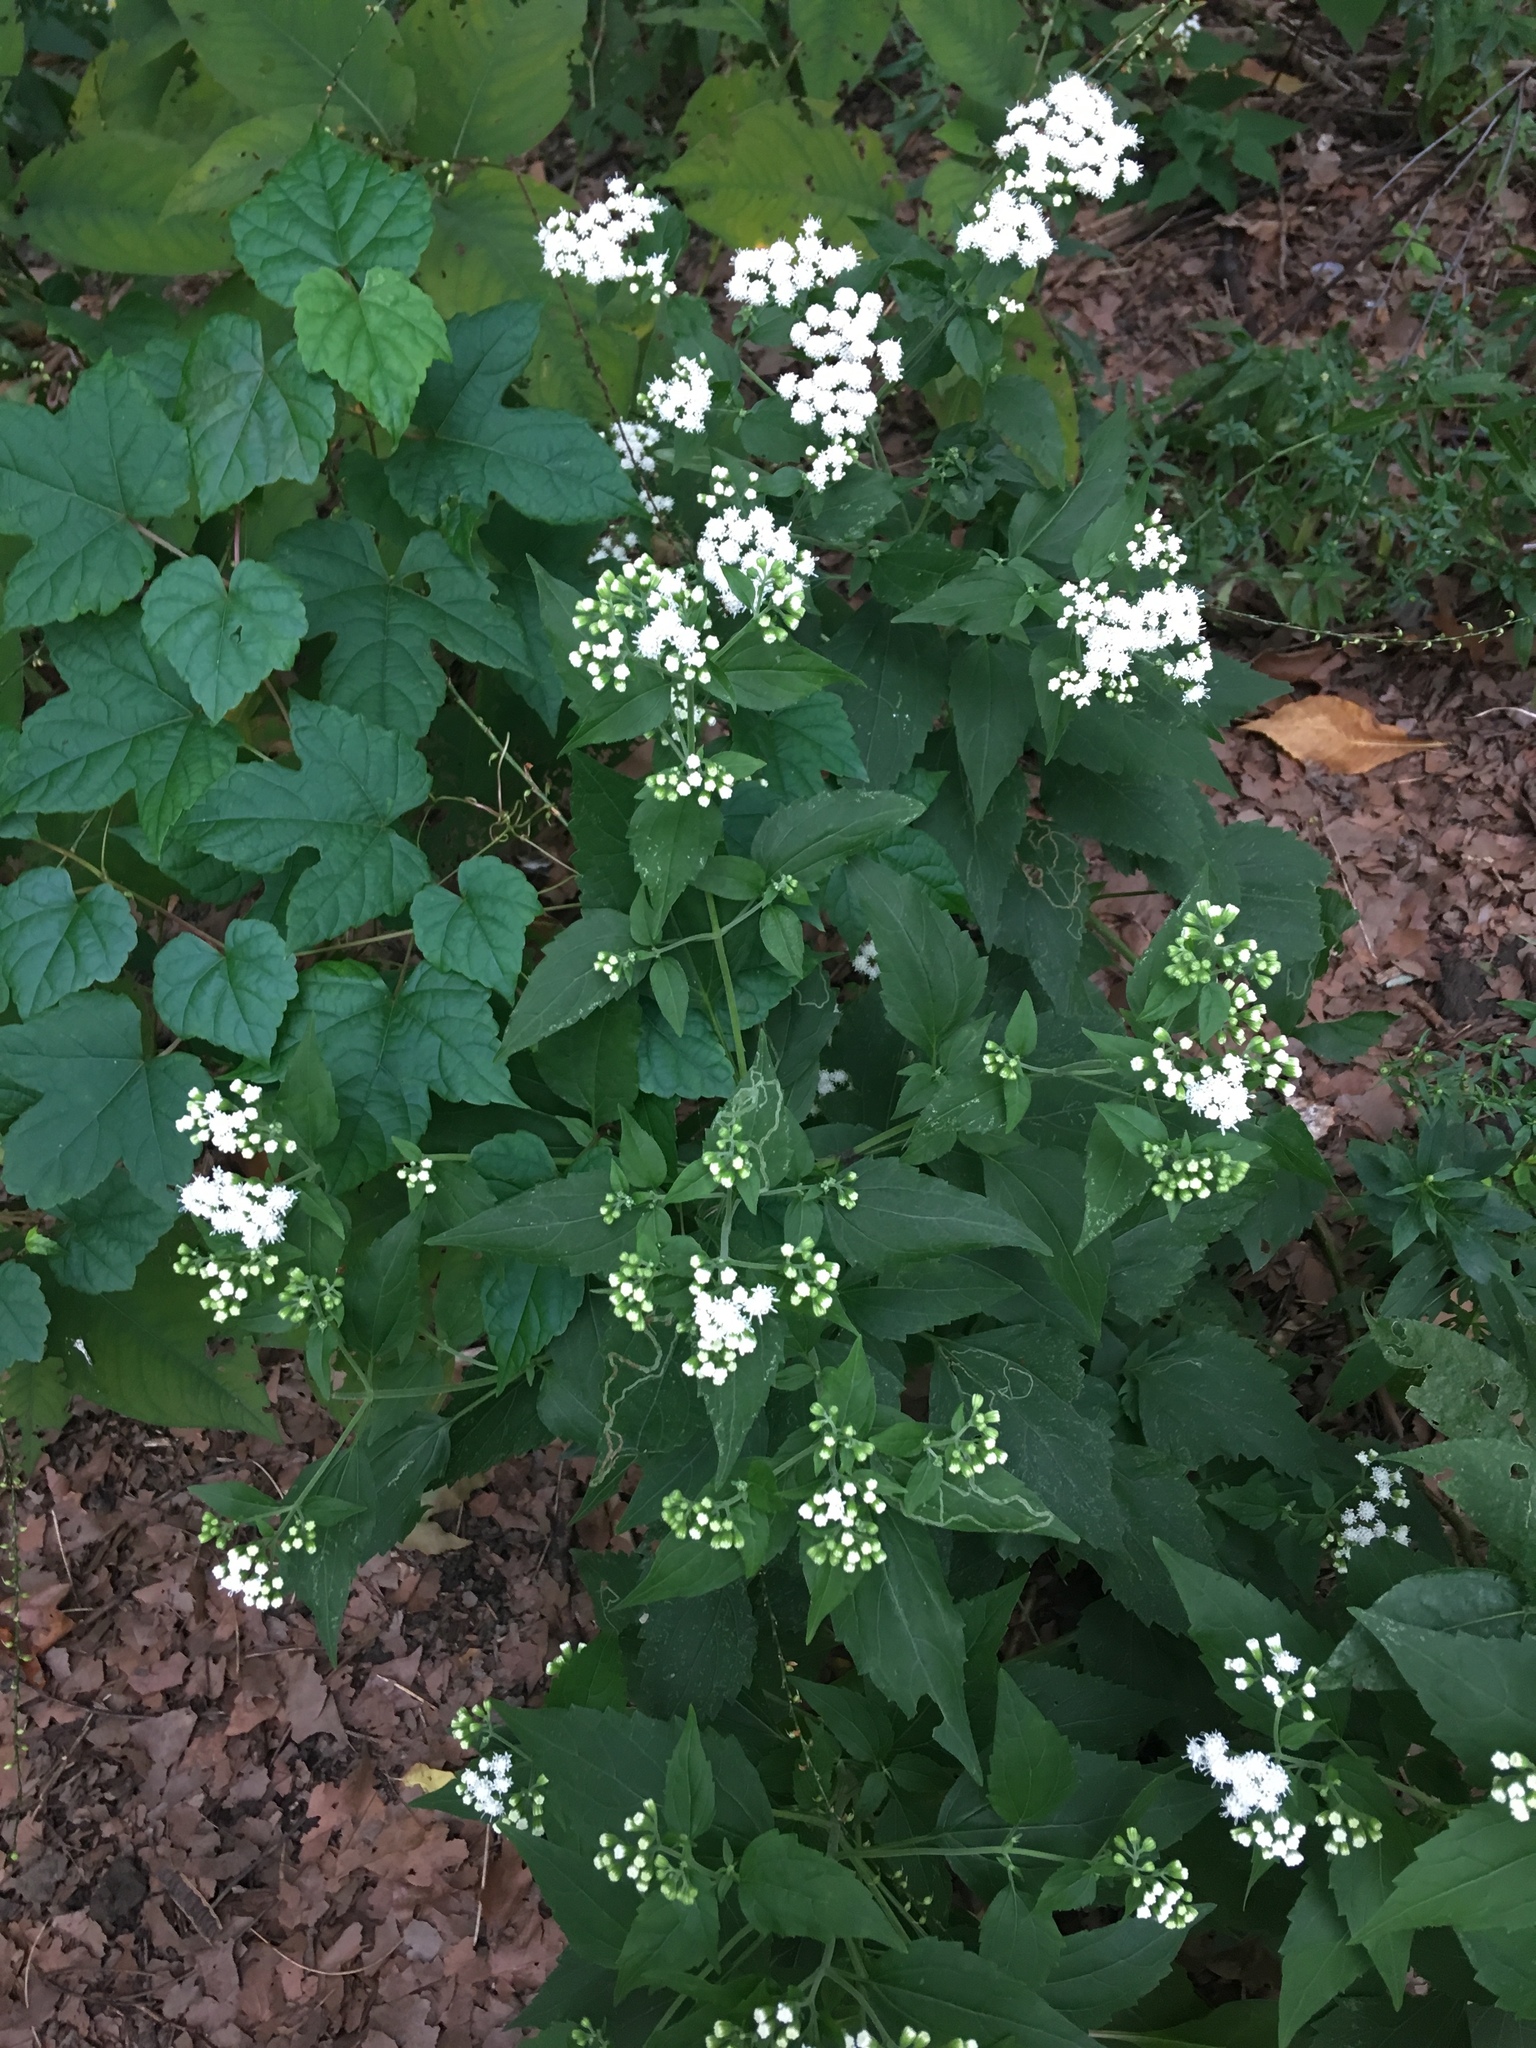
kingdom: Plantae
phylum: Tracheophyta
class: Magnoliopsida
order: Asterales
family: Asteraceae
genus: Ageratina
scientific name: Ageratina altissima
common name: White snakeroot
